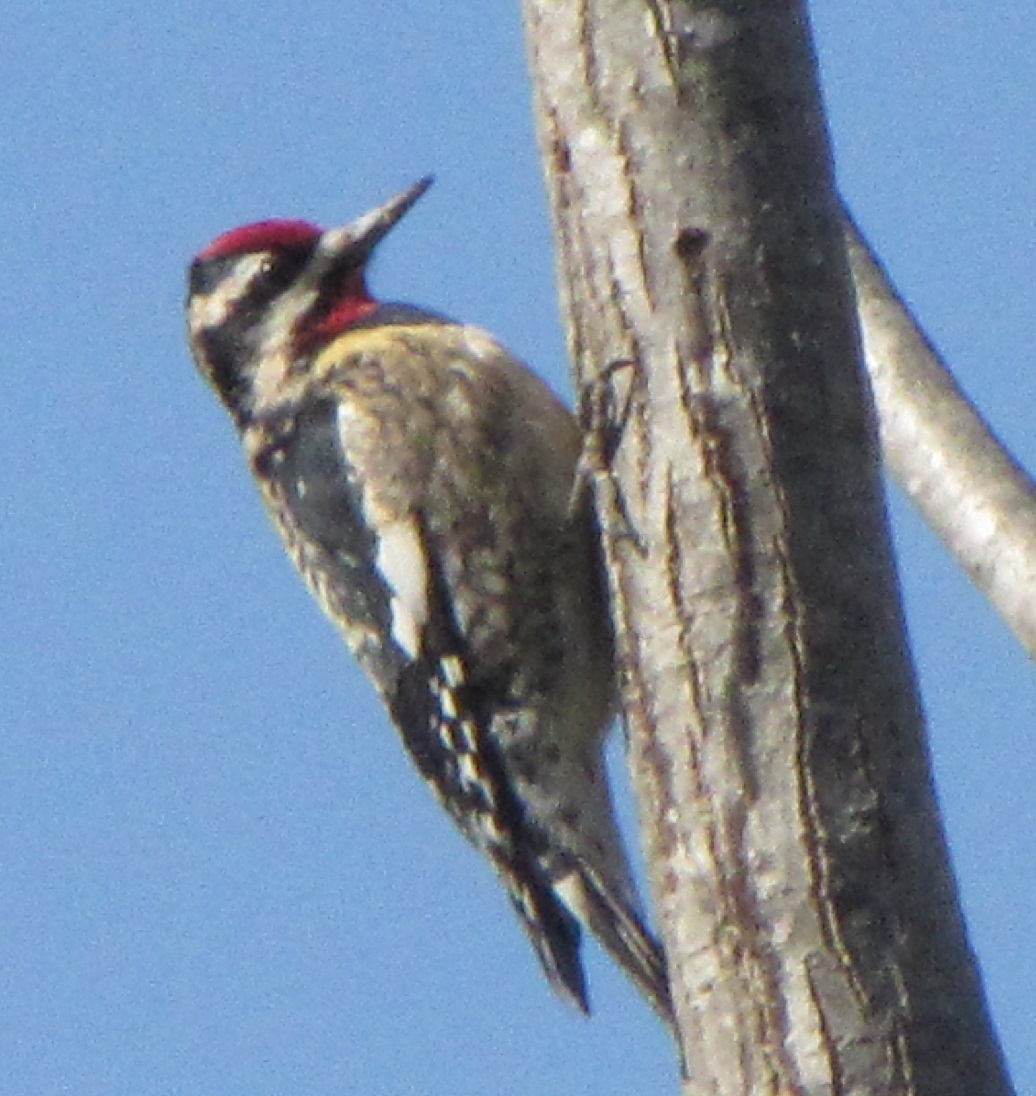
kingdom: Animalia
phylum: Chordata
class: Aves
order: Piciformes
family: Picidae
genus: Sphyrapicus
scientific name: Sphyrapicus varius
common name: Yellow-bellied sapsucker
